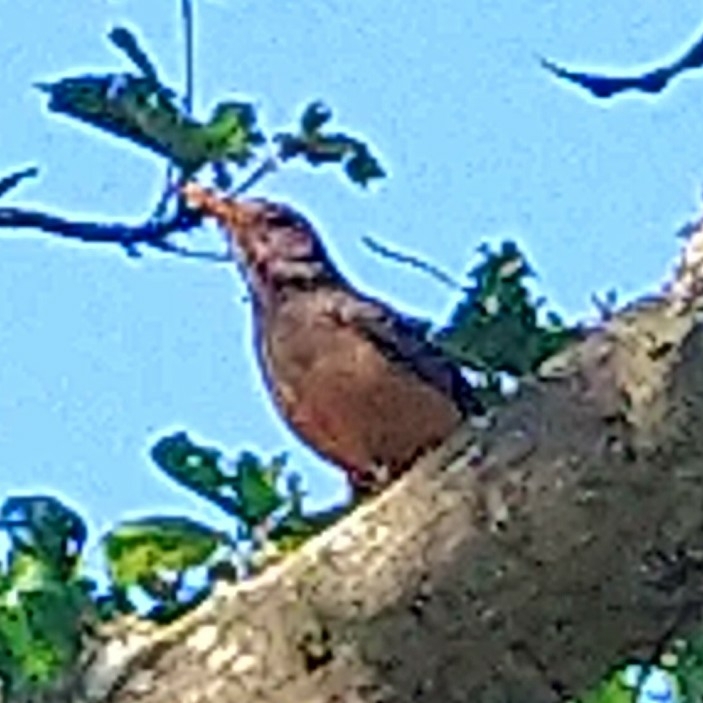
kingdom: Animalia
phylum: Chordata
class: Aves
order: Passeriformes
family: Turdidae
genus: Turdus
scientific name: Turdus olivaceus
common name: Olive thrush
